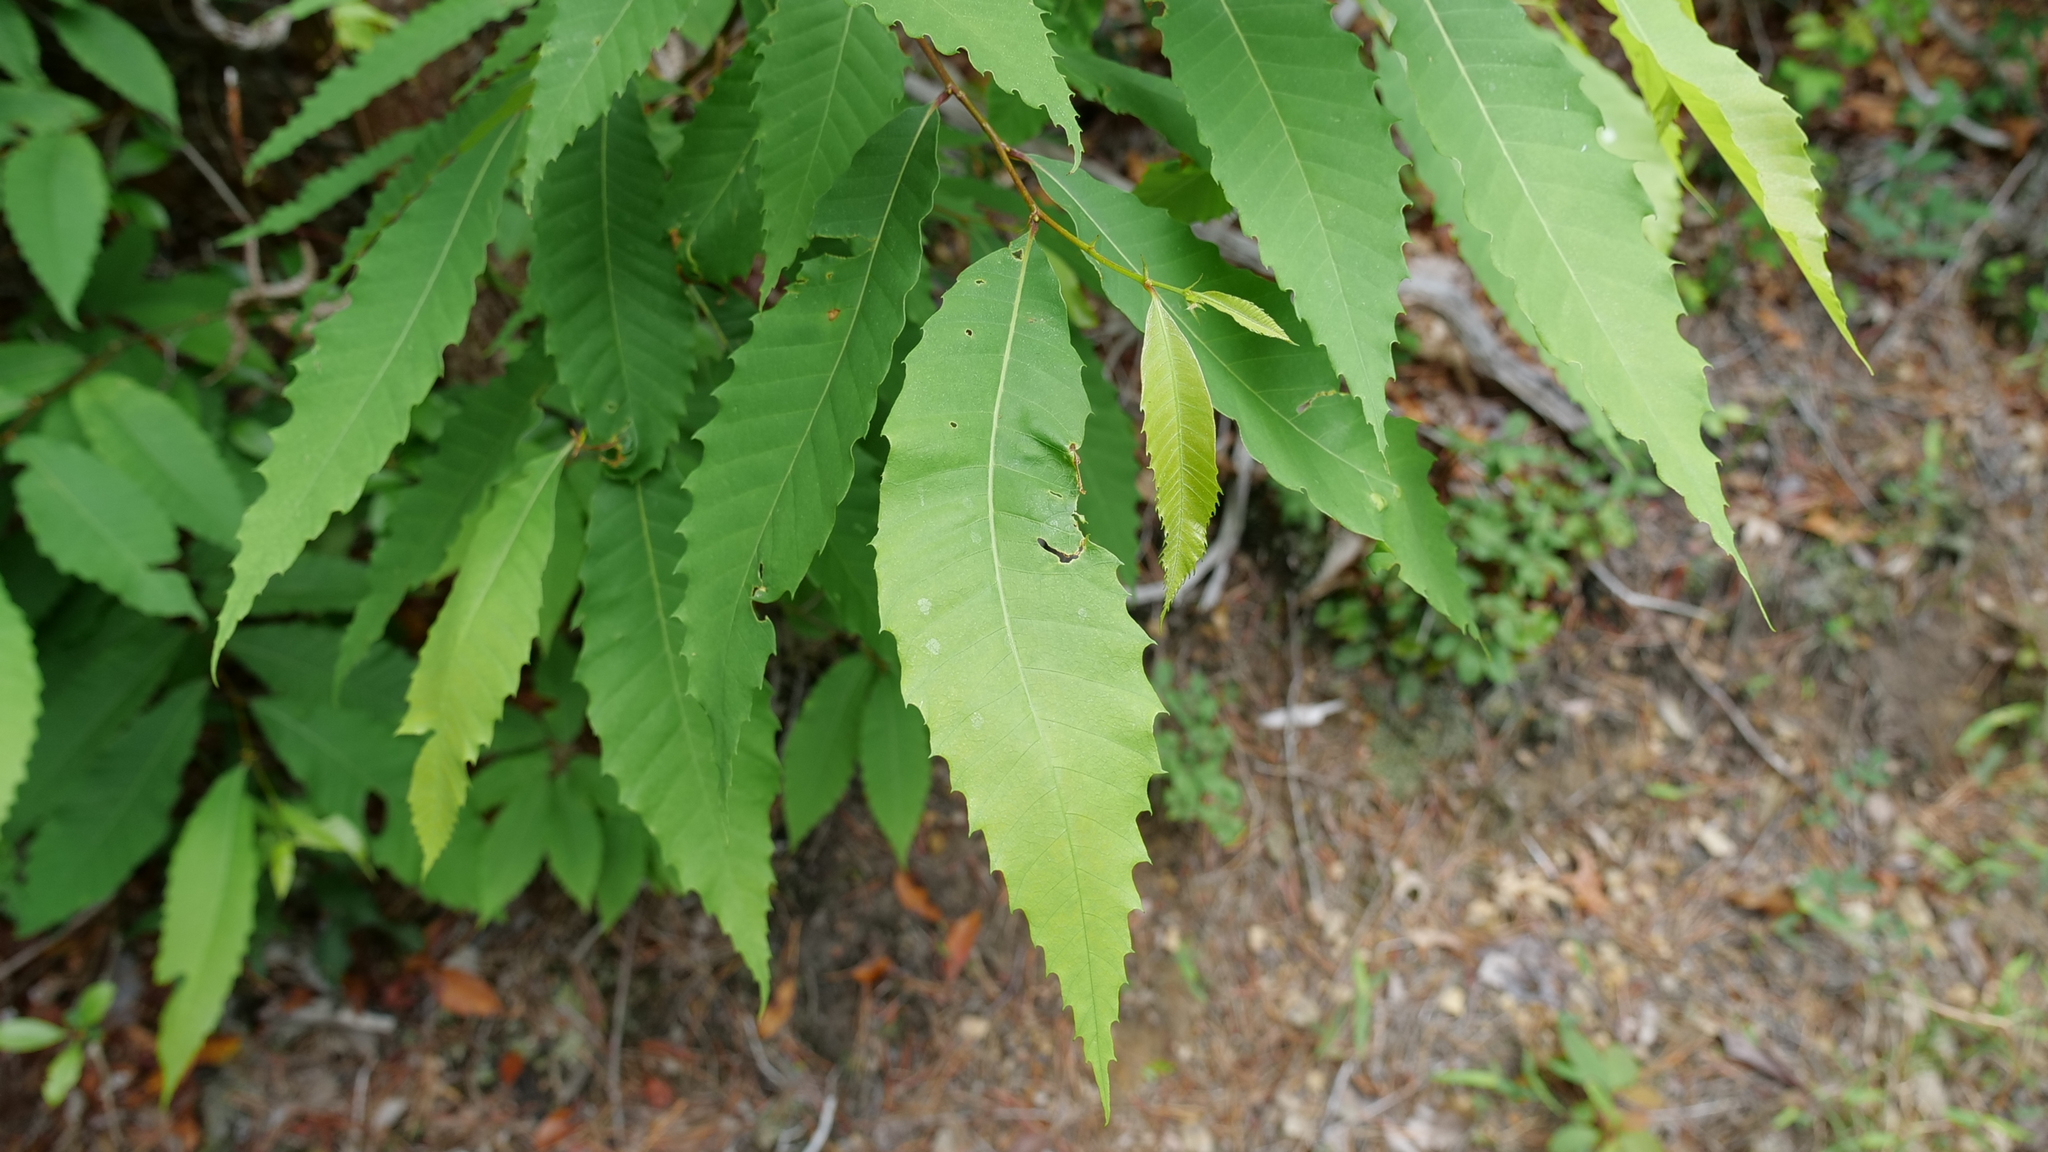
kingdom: Plantae
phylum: Tracheophyta
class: Magnoliopsida
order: Fagales
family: Fagaceae
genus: Castanea
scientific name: Castanea dentata
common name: American chestnut
